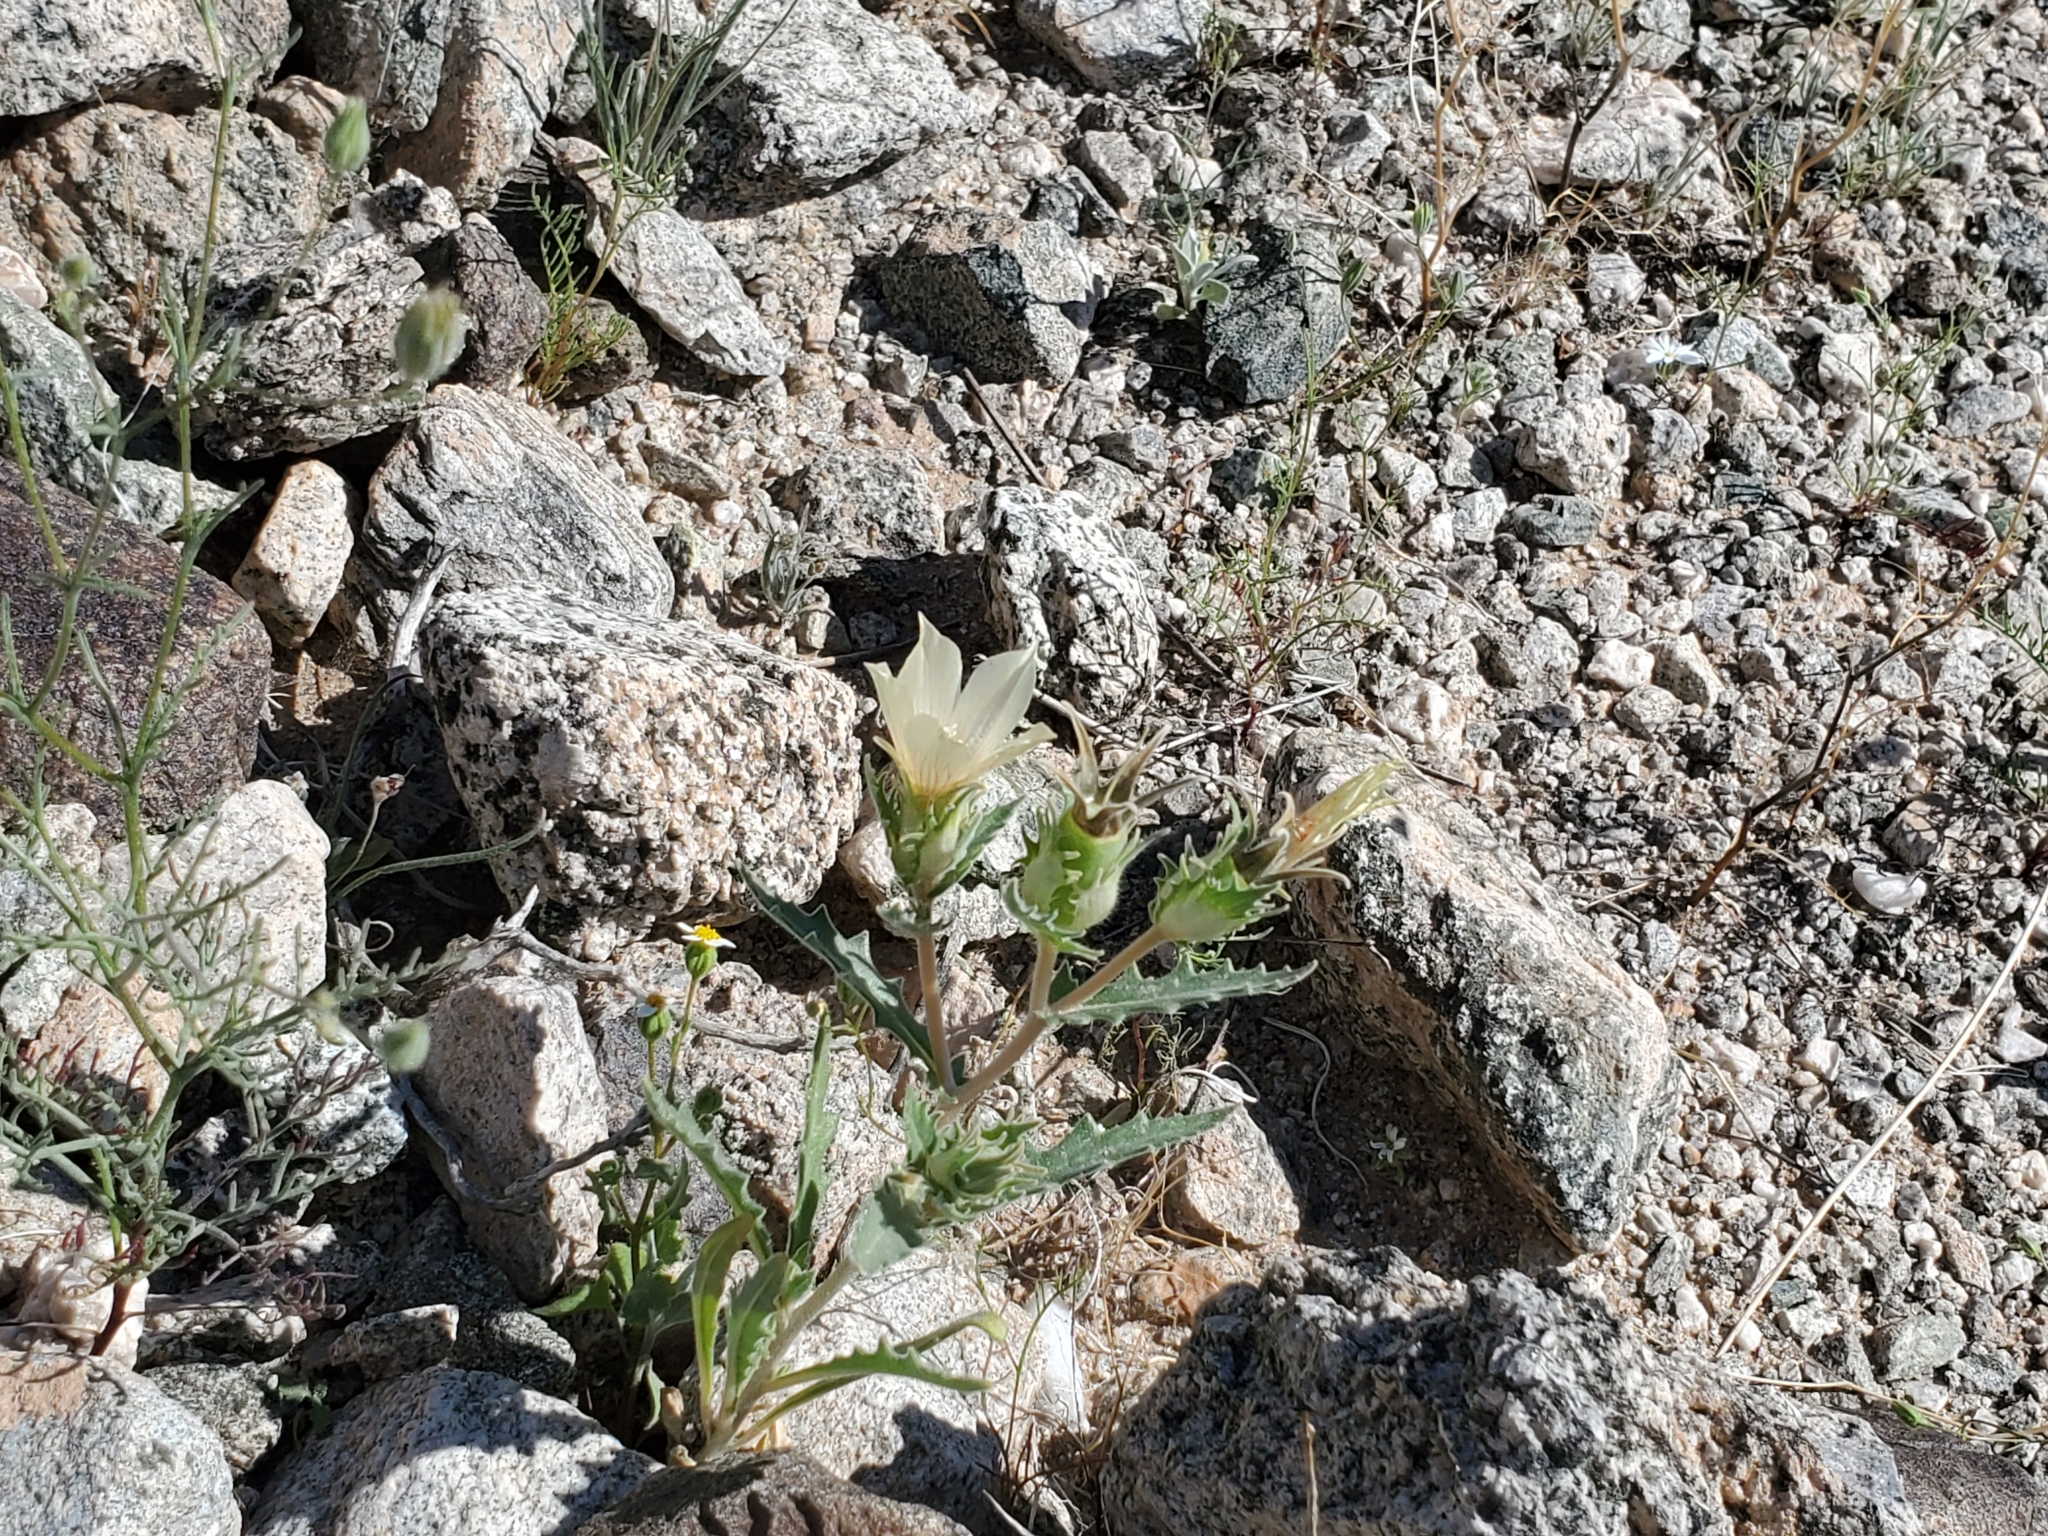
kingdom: Plantae
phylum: Tracheophyta
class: Magnoliopsida
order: Cornales
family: Loasaceae
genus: Mentzelia
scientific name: Mentzelia involucrata
